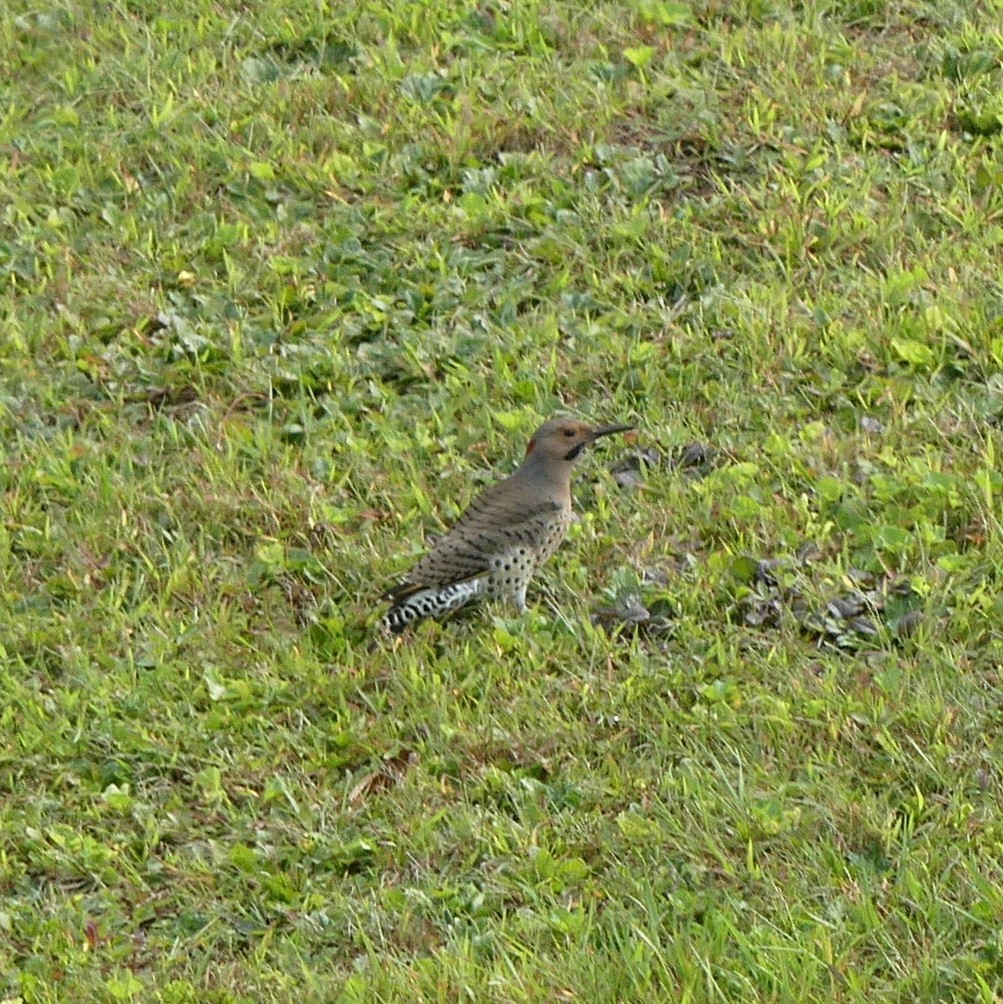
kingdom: Animalia
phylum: Chordata
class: Aves
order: Piciformes
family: Picidae
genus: Colaptes
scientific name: Colaptes auratus
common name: Northern flicker
